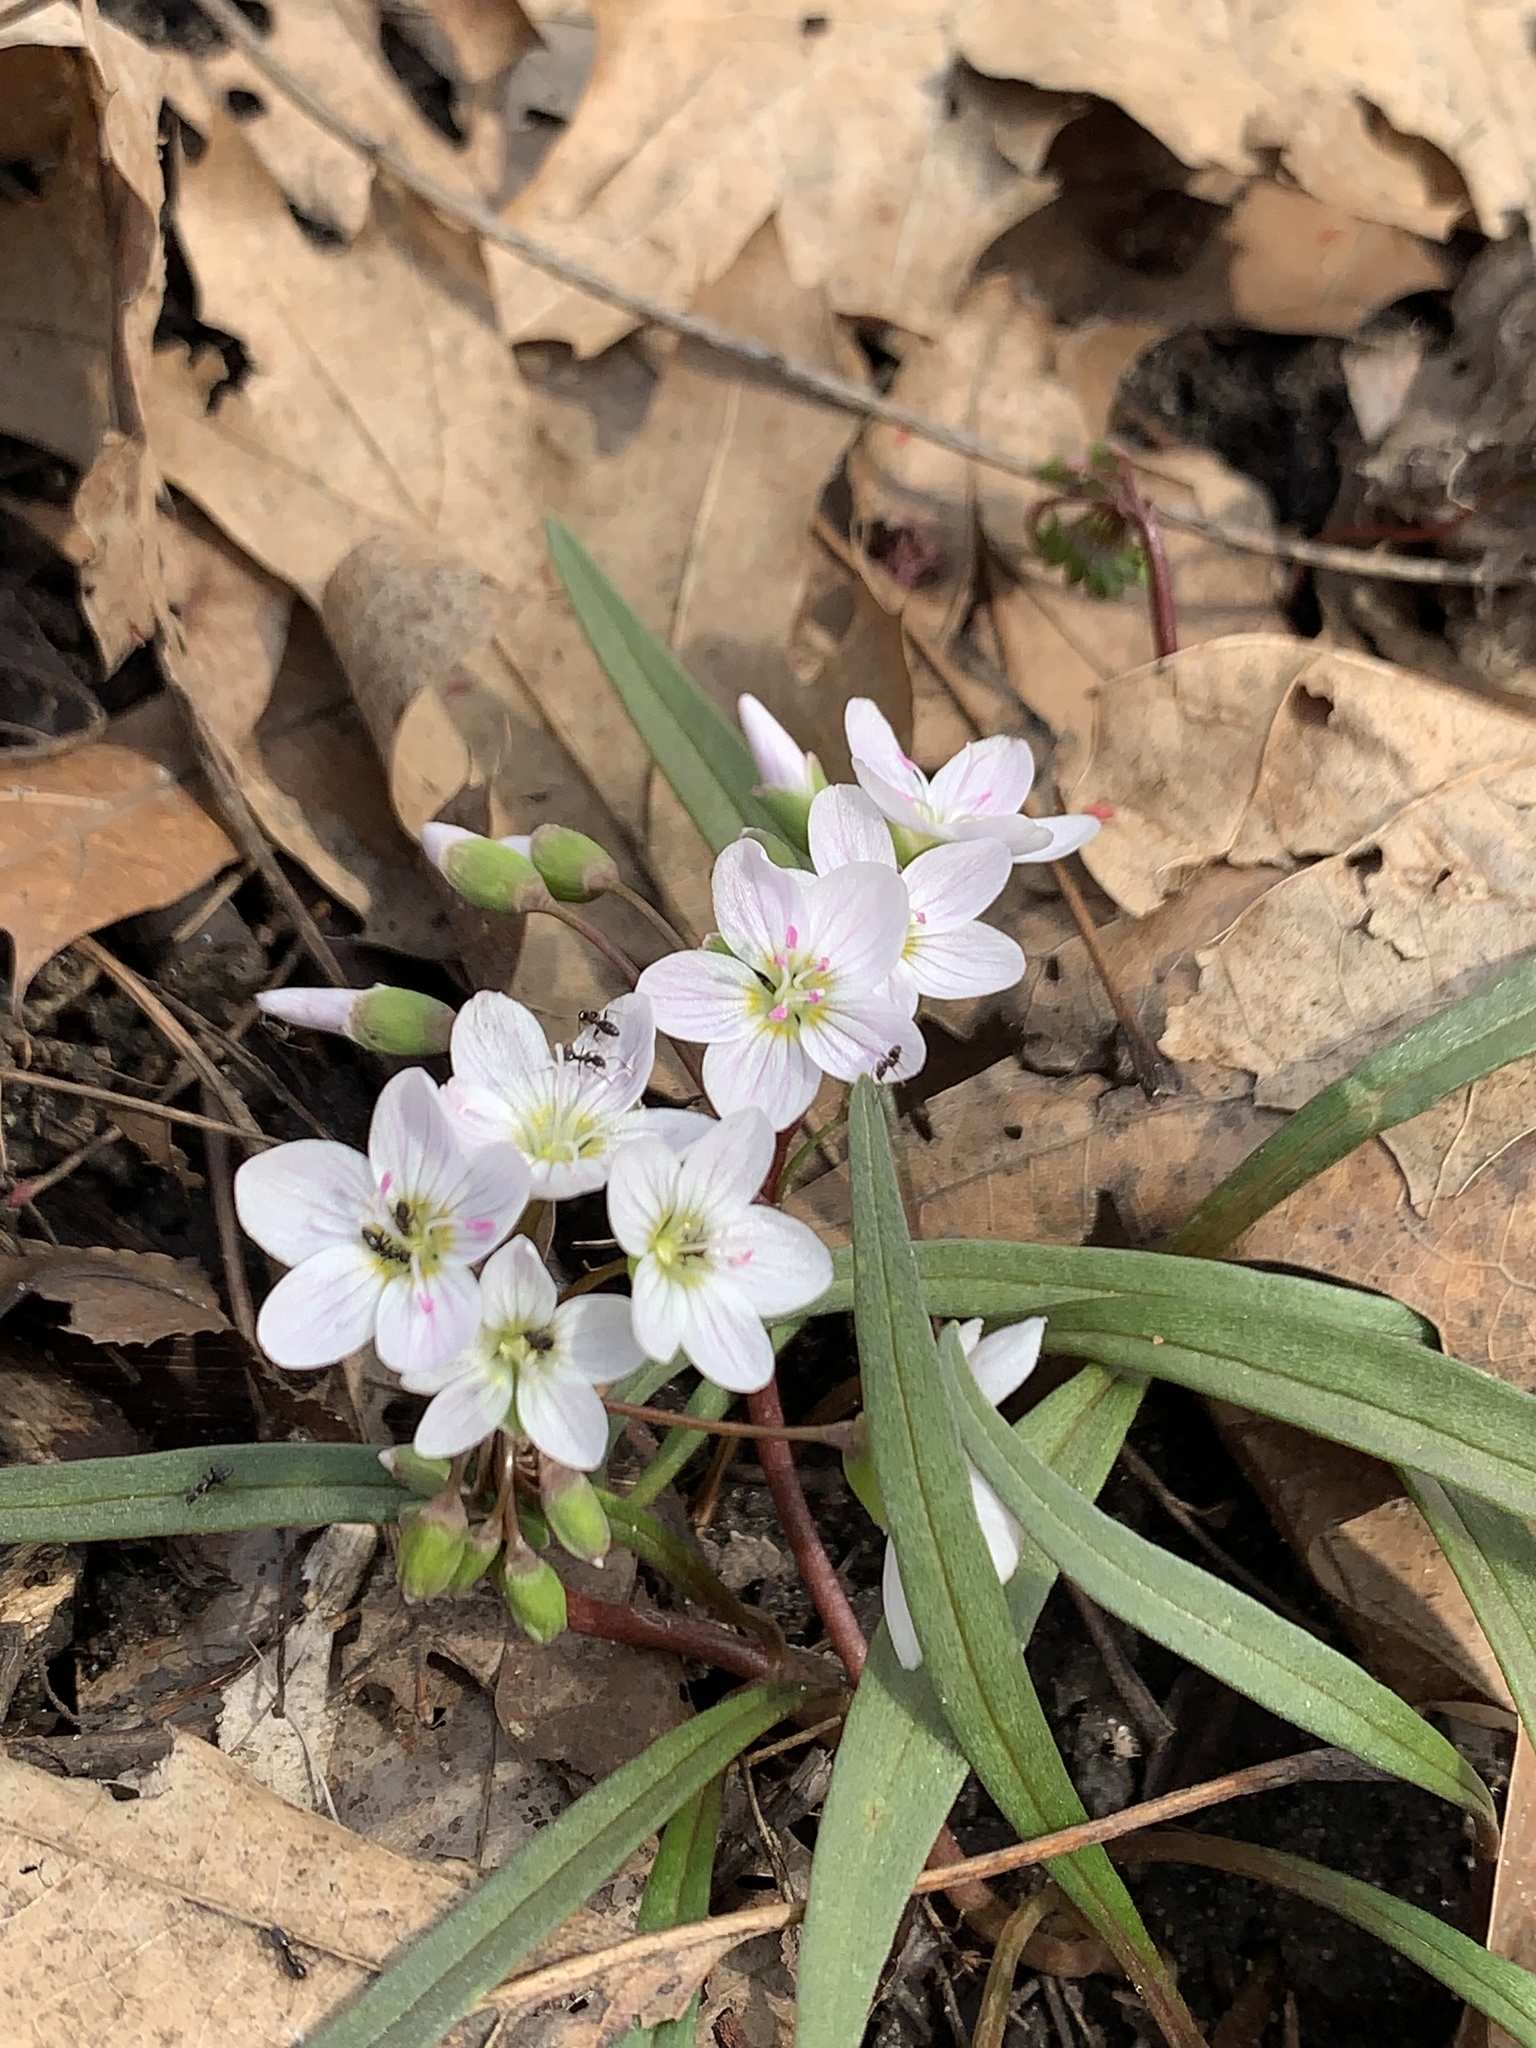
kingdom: Plantae
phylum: Tracheophyta
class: Magnoliopsida
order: Caryophyllales
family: Montiaceae
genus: Claytonia
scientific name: Claytonia virginica
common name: Virginia springbeauty
